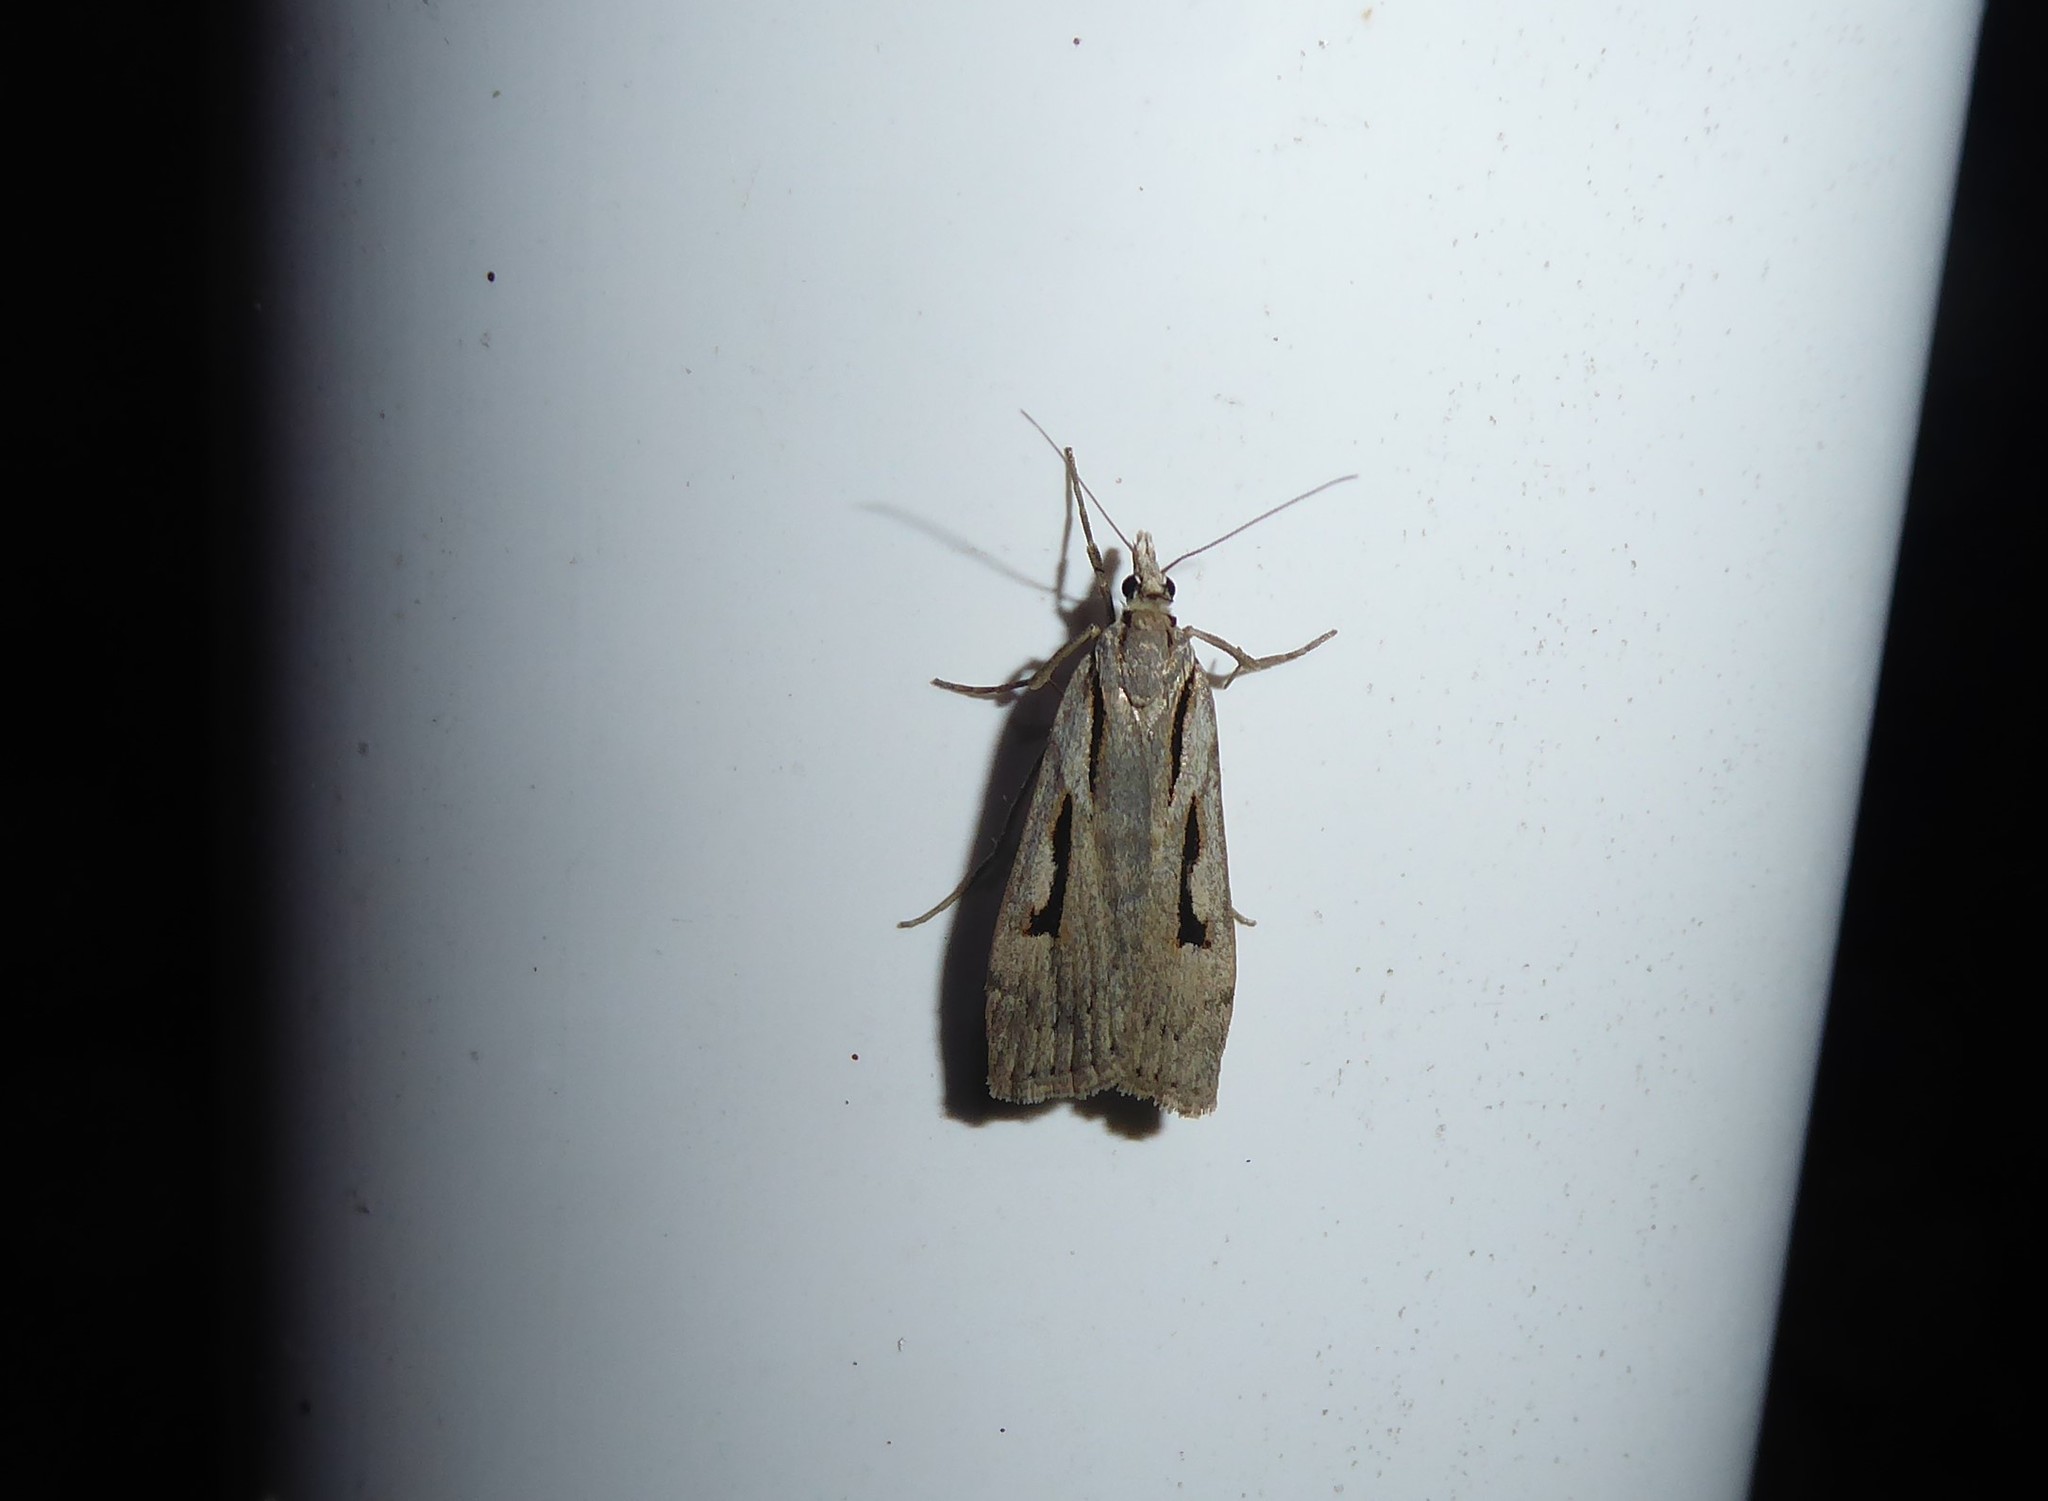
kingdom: Animalia
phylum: Arthropoda
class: Insecta
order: Lepidoptera
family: Crambidae
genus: Scoparia
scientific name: Scoparia rotuellus
